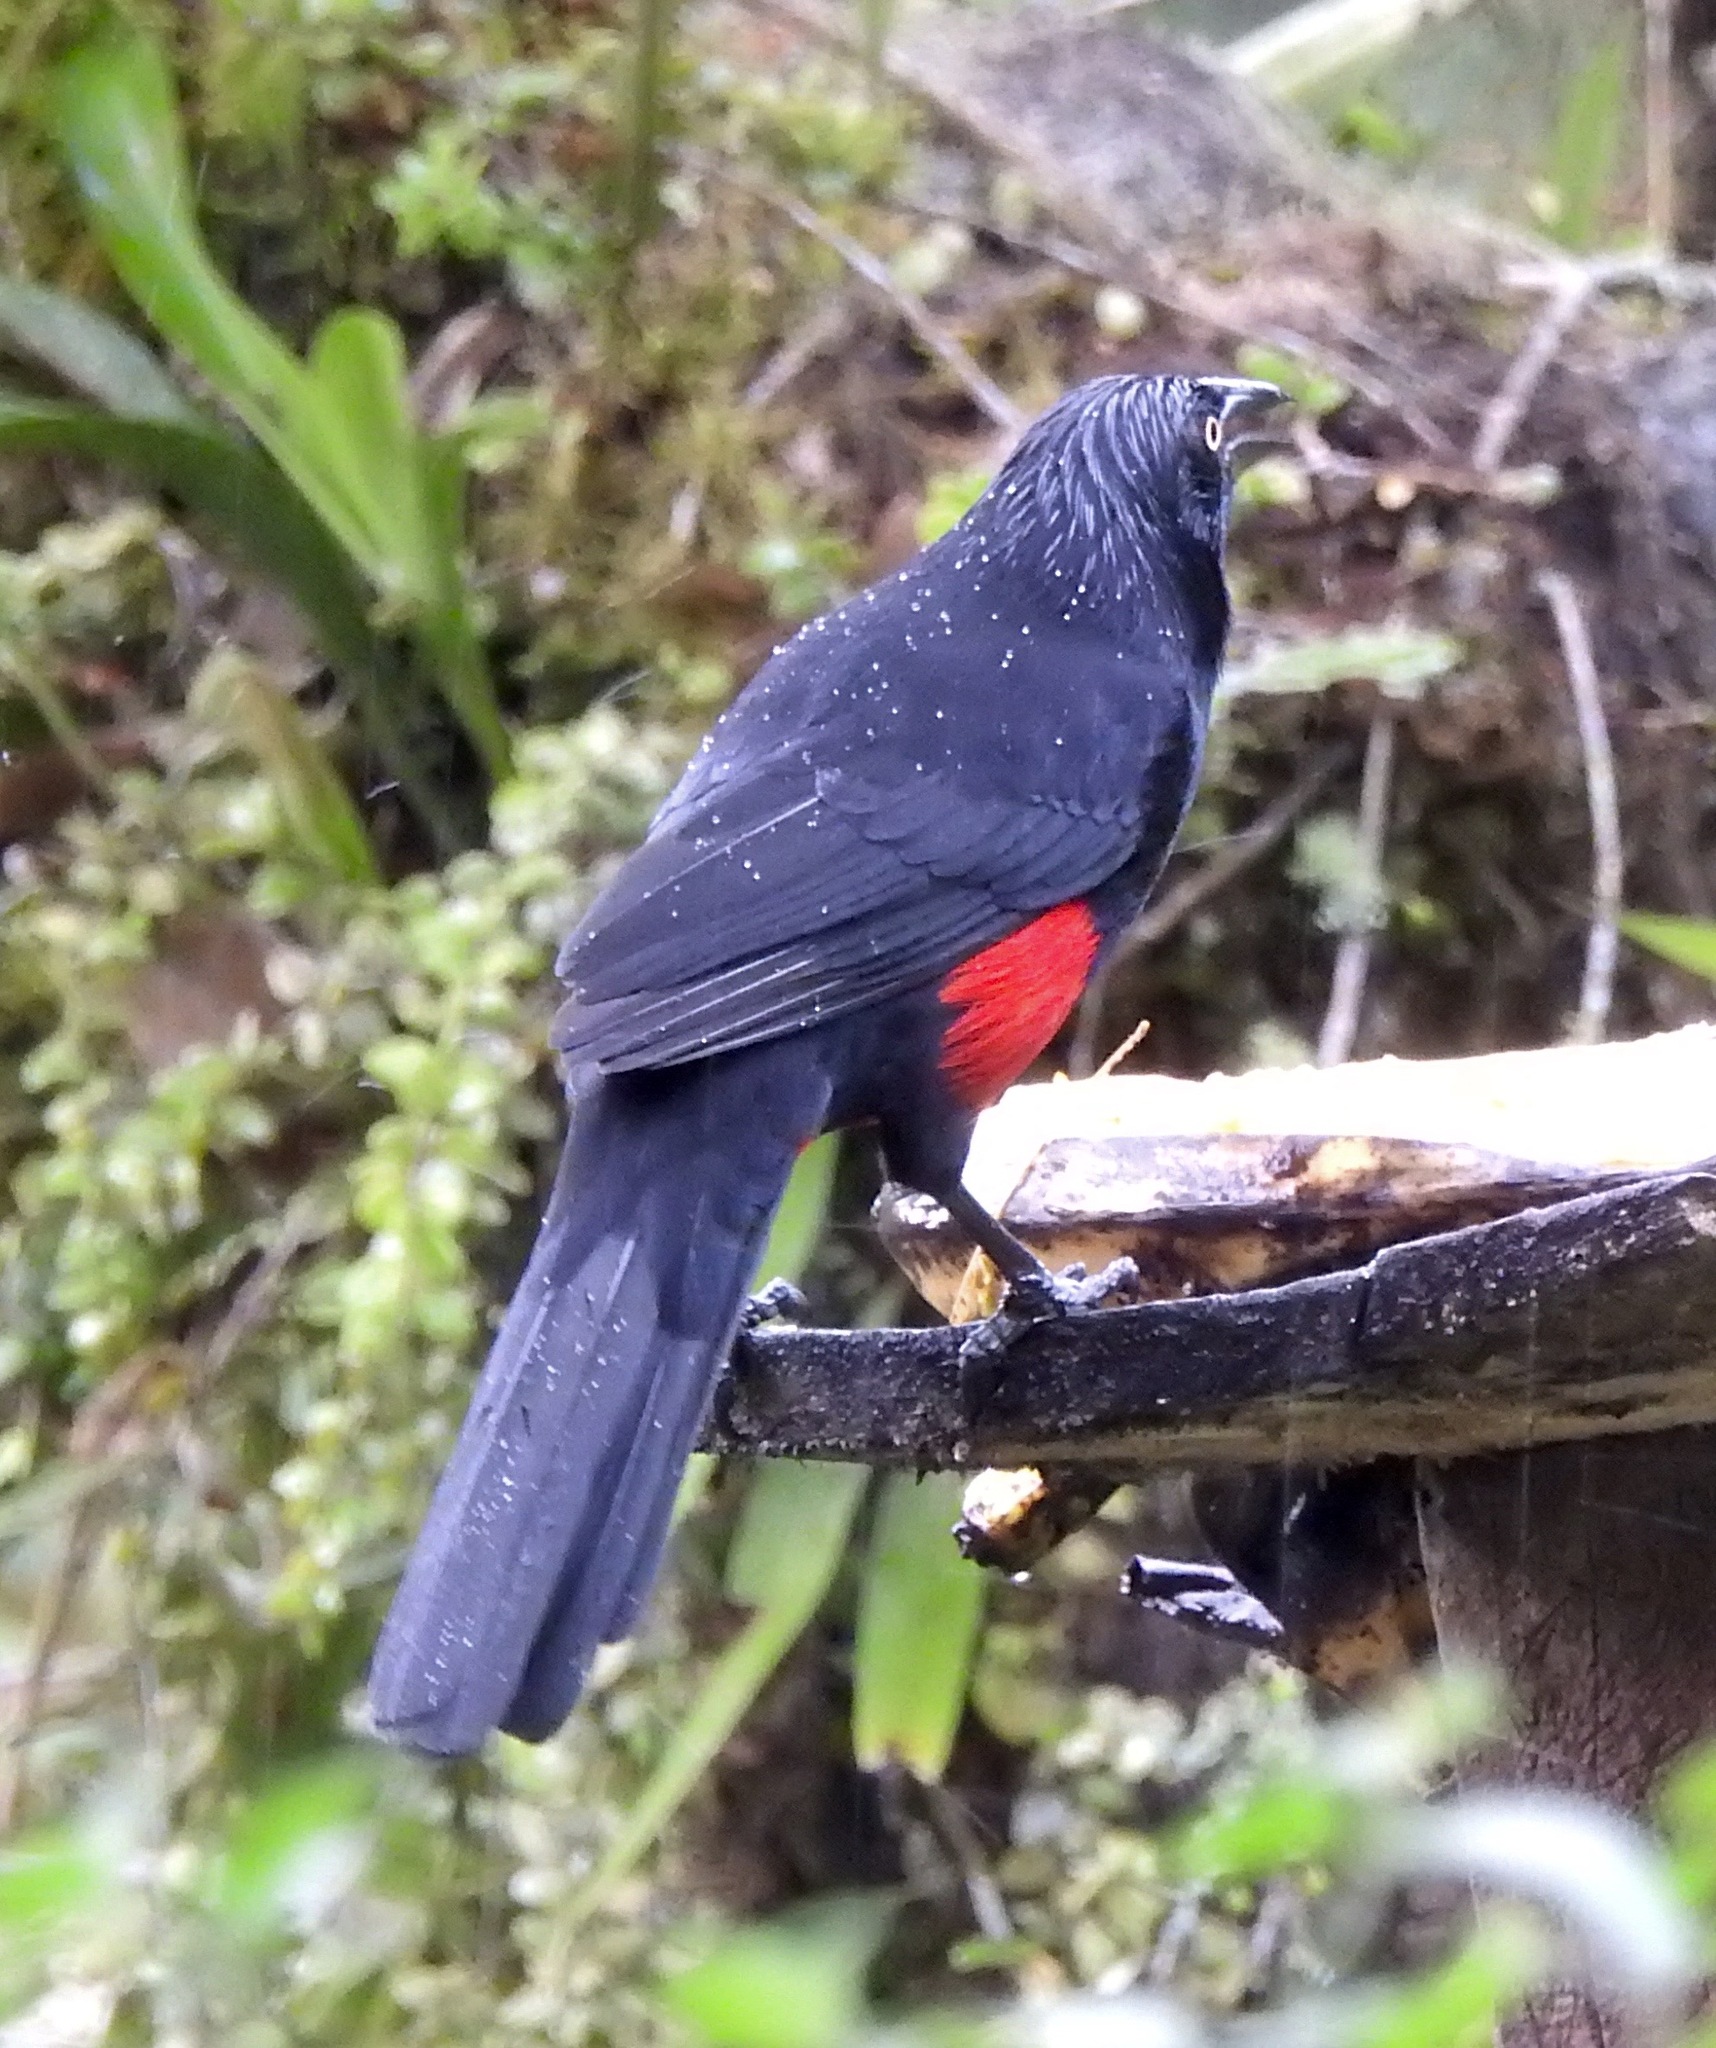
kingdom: Animalia
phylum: Chordata
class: Aves
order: Passeriformes
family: Icteridae
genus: Hypopyrrhus
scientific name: Hypopyrrhus pyrohypogaster
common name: Red-bellied grackle
